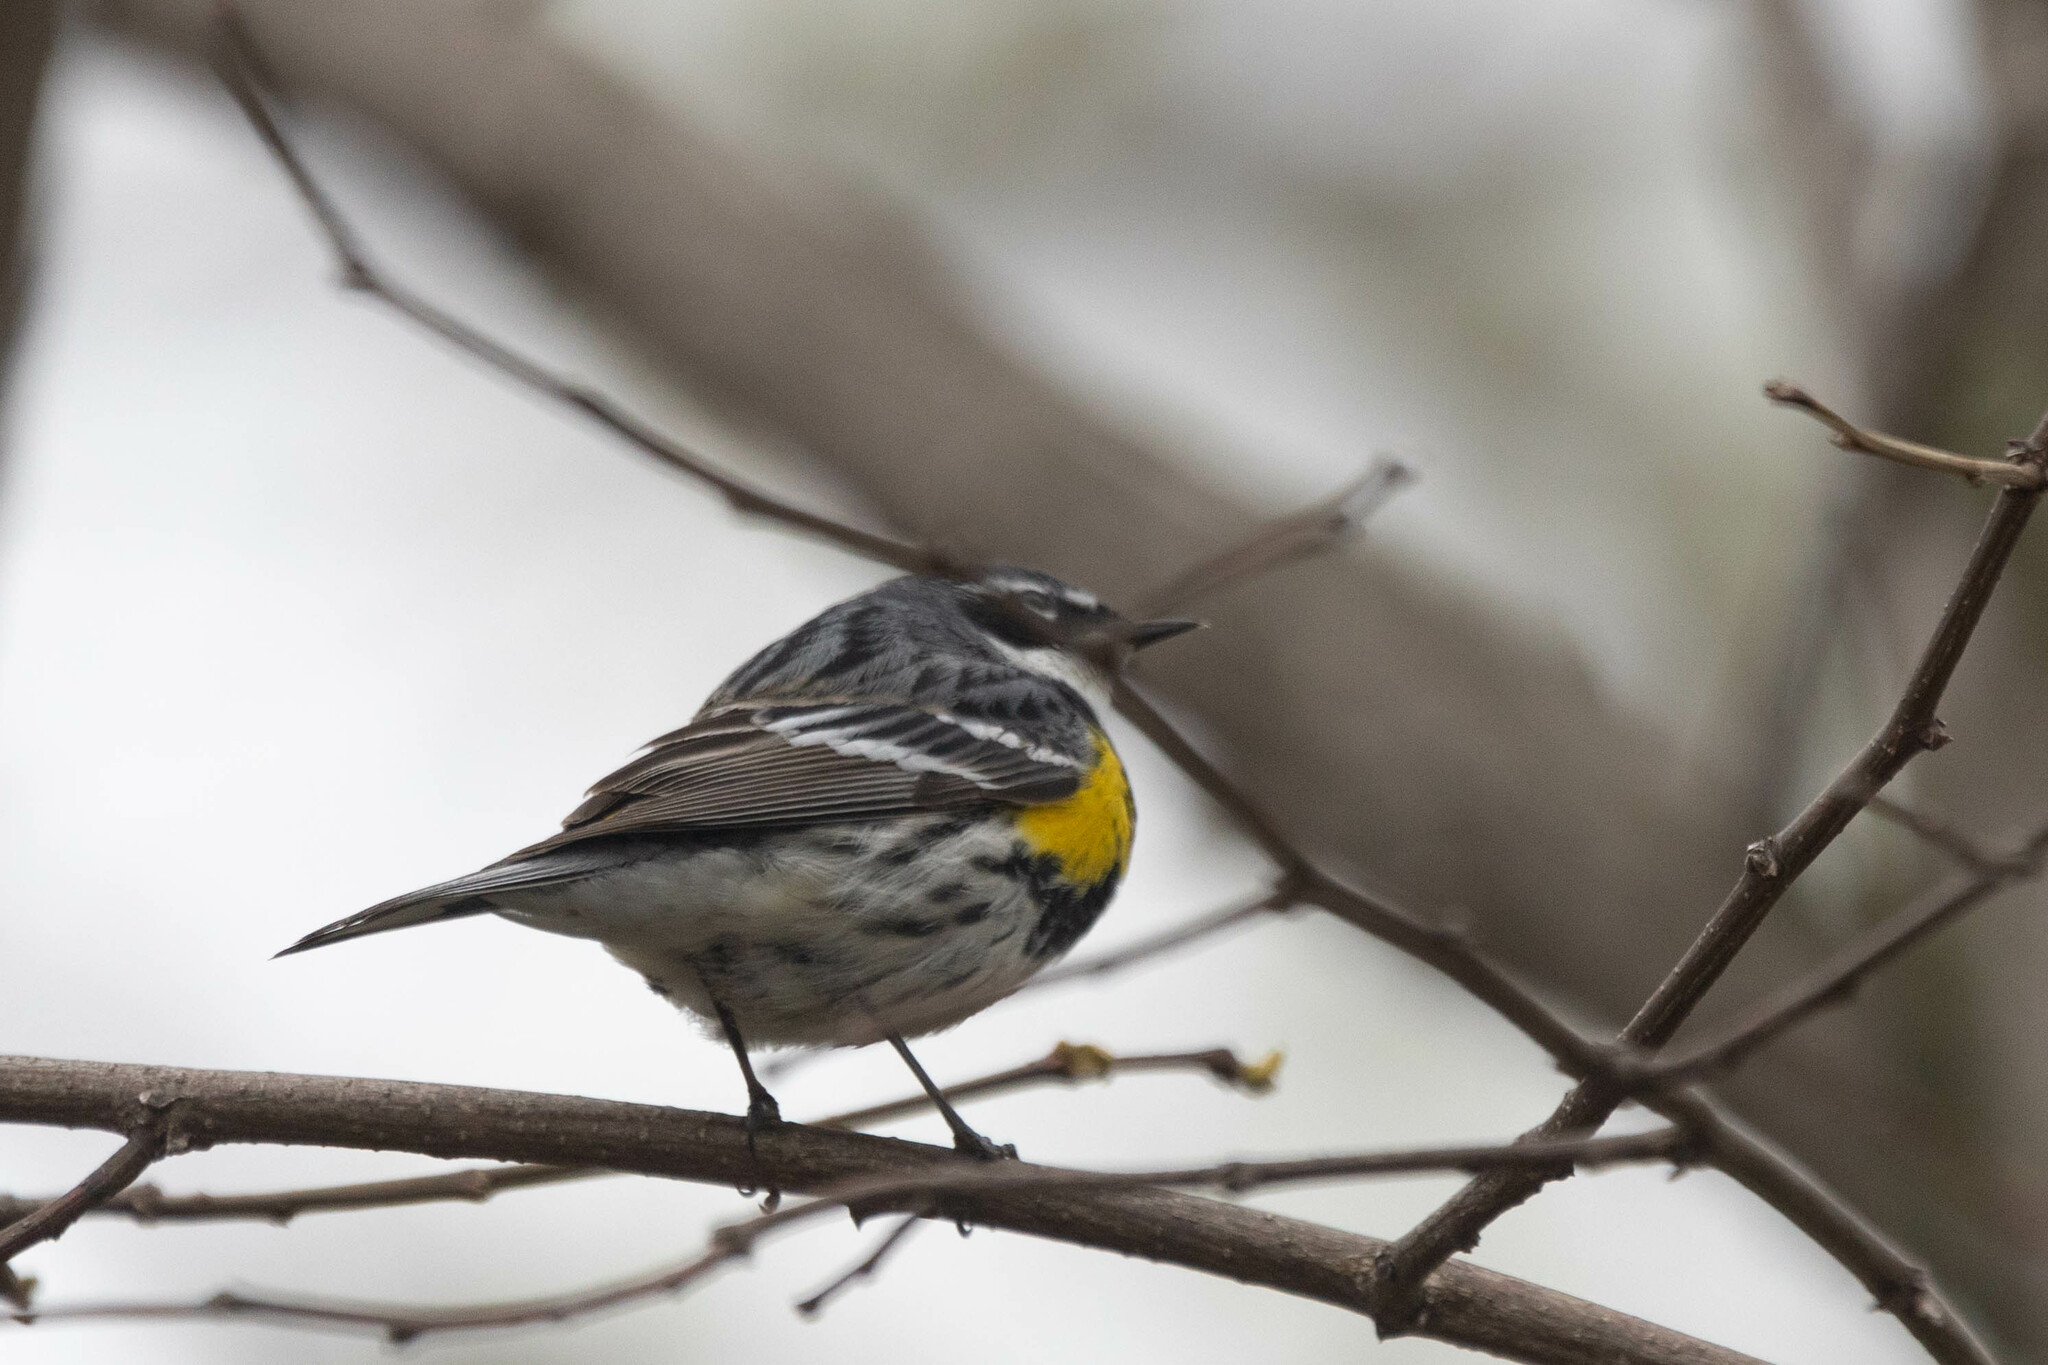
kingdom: Animalia
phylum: Chordata
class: Aves
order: Passeriformes
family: Parulidae
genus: Setophaga
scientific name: Setophaga coronata
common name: Myrtle warbler
